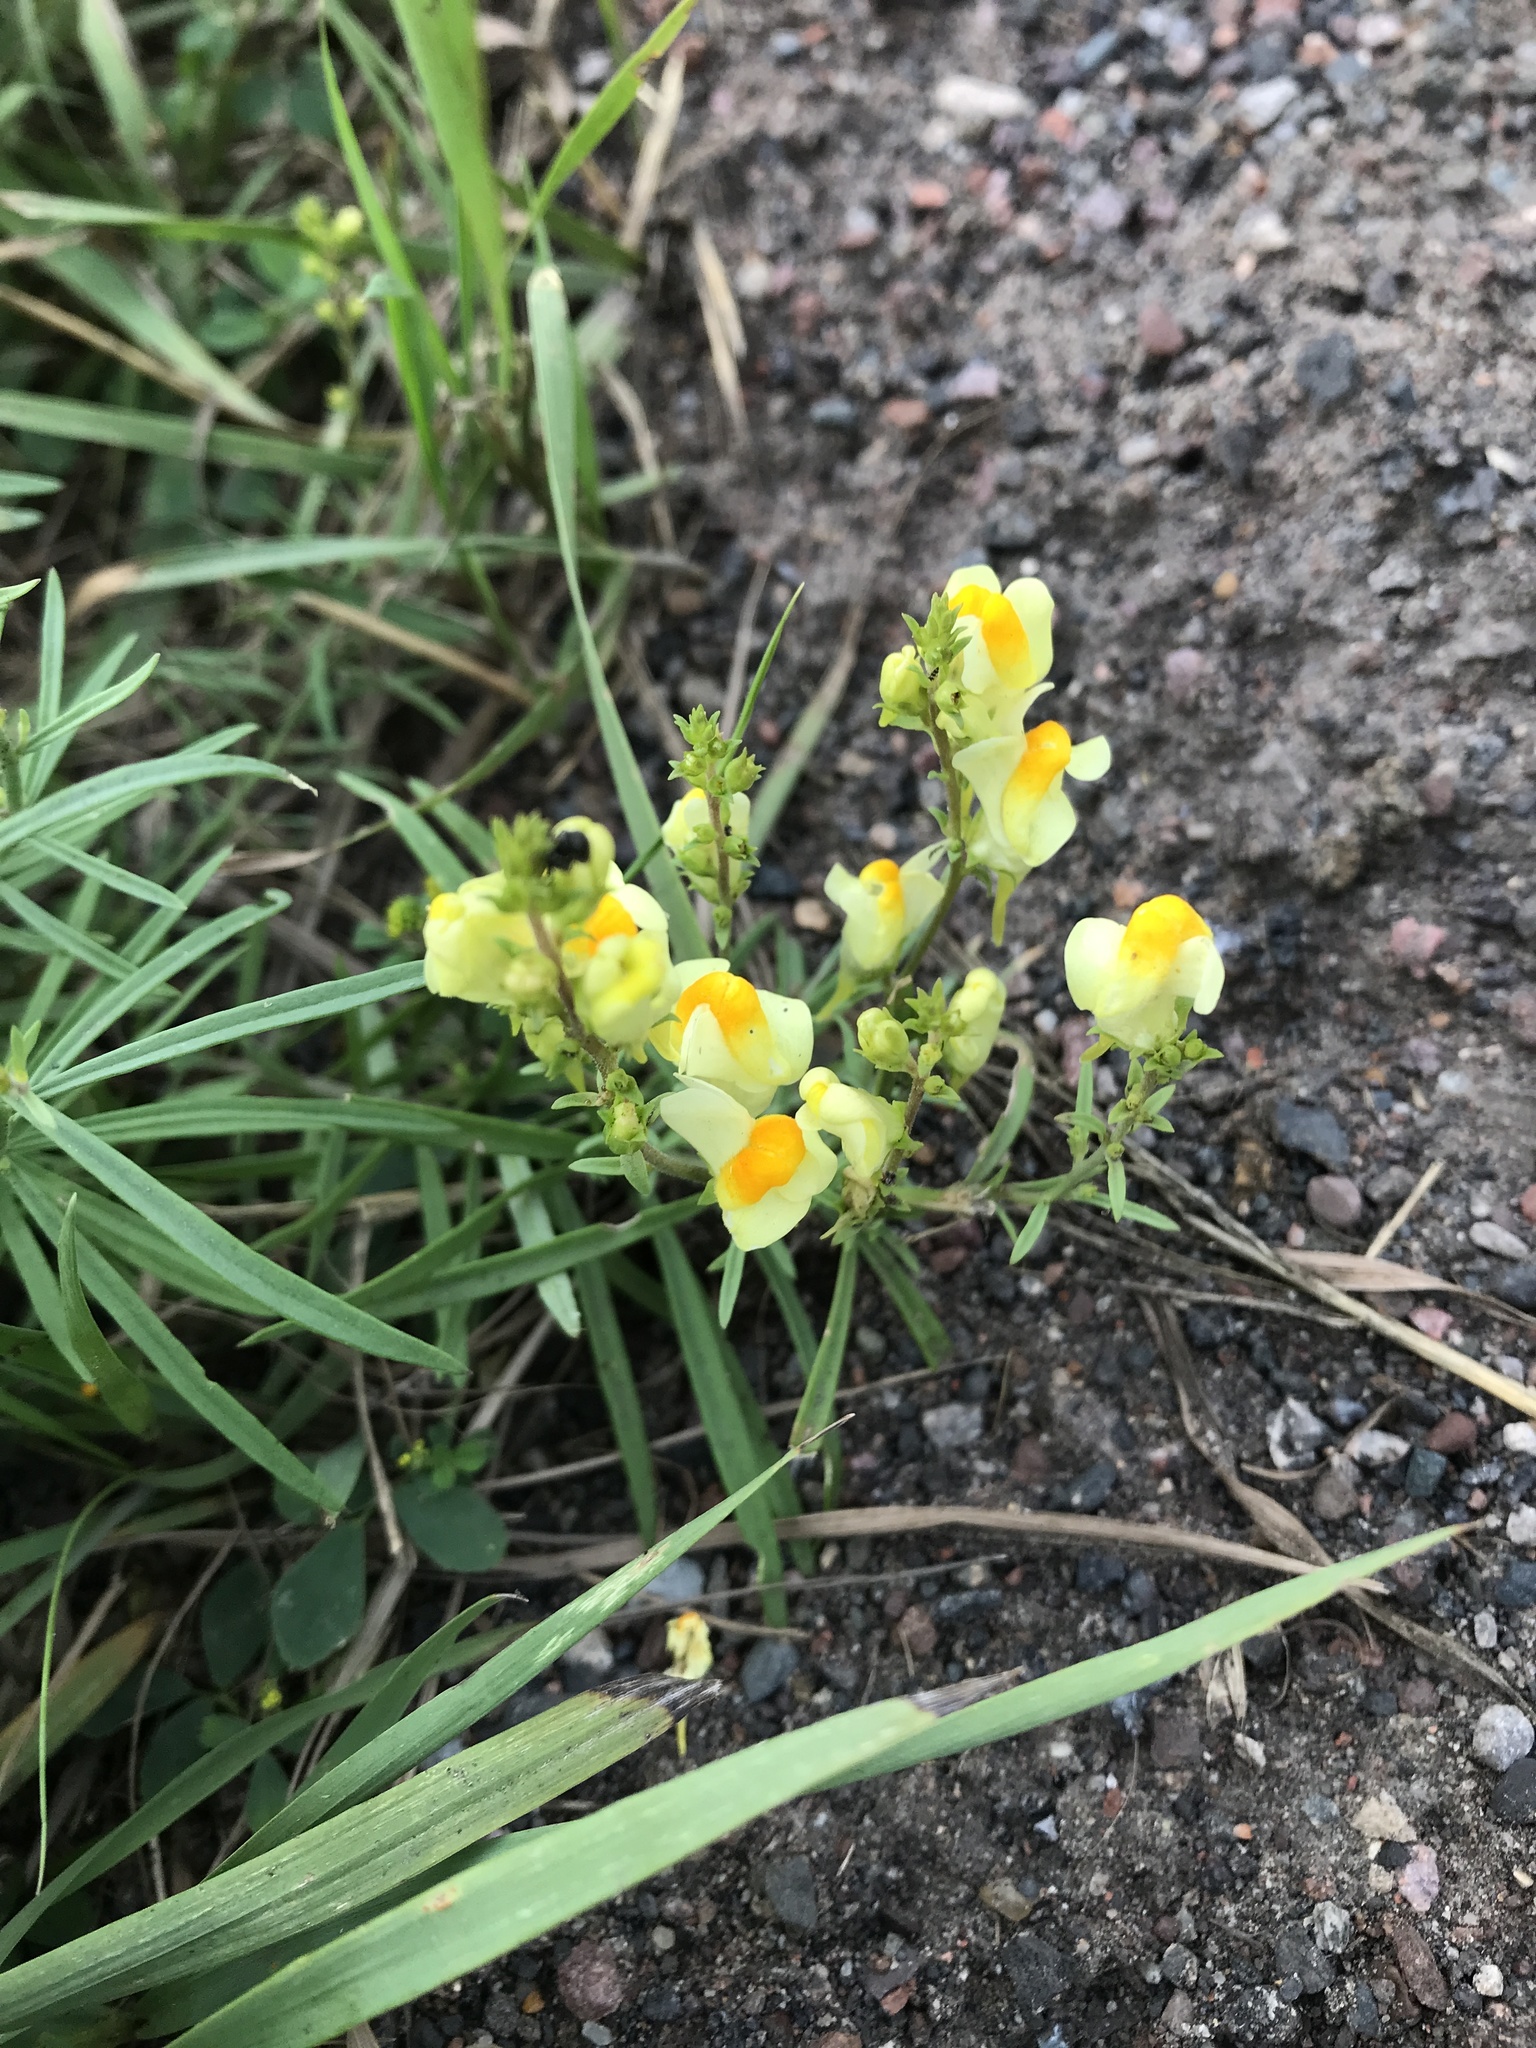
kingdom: Plantae
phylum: Tracheophyta
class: Magnoliopsida
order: Lamiales
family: Plantaginaceae
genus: Linaria
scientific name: Linaria vulgaris
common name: Butter and eggs
